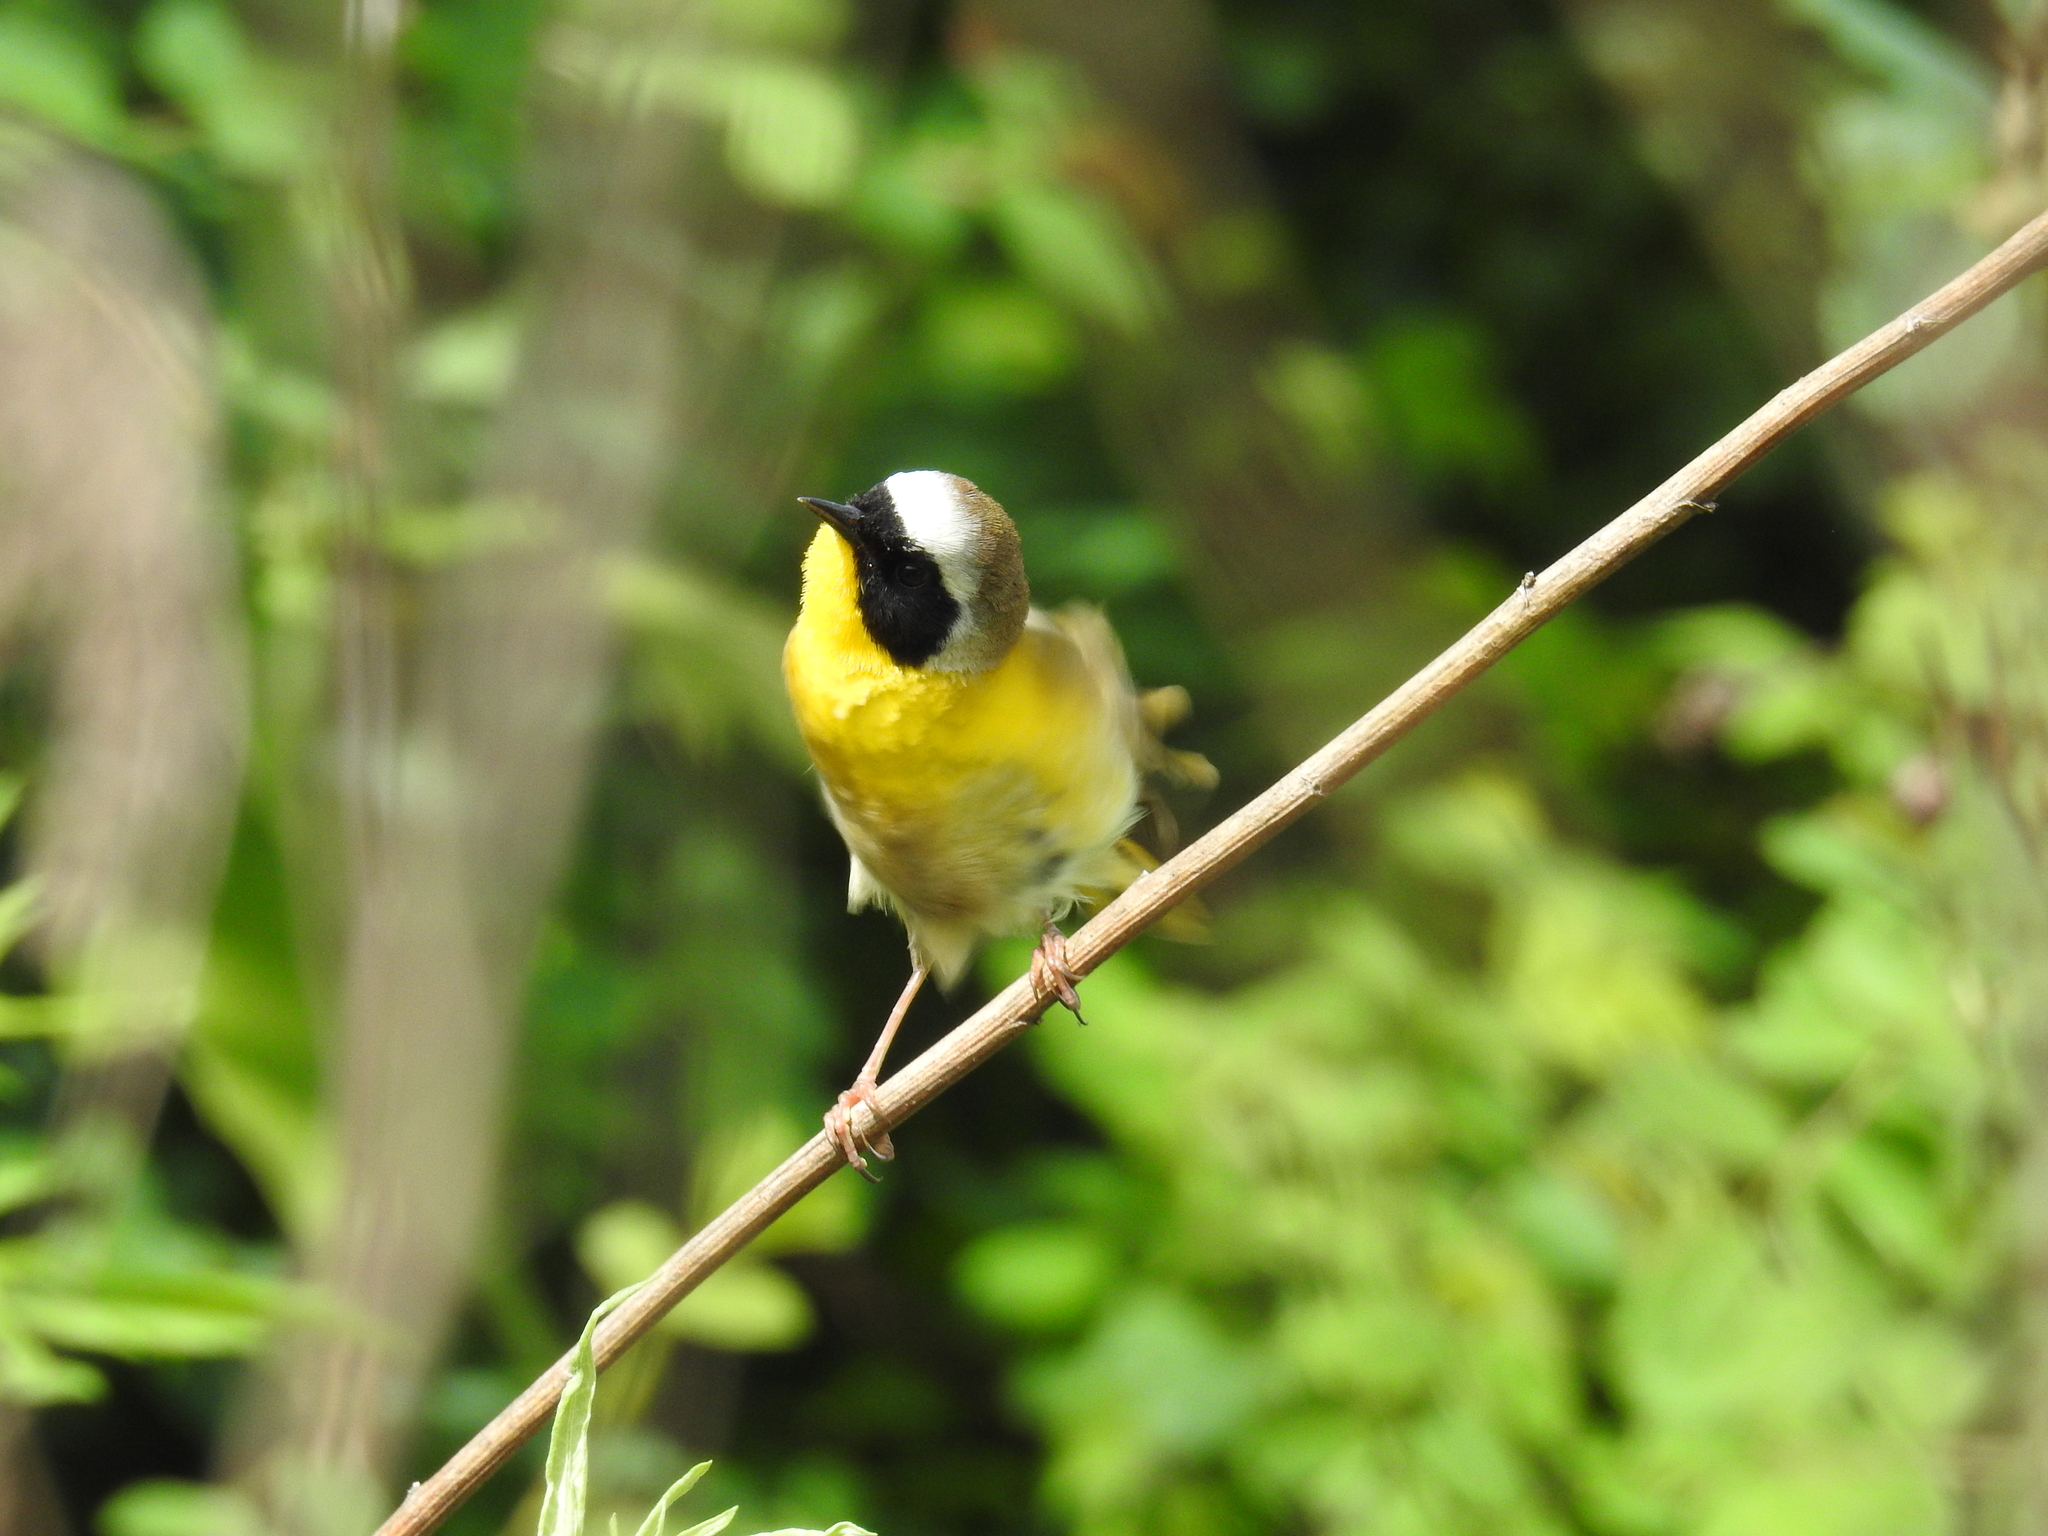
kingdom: Animalia
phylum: Chordata
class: Aves
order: Passeriformes
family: Parulidae
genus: Geothlypis
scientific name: Geothlypis trichas
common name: Common yellowthroat
